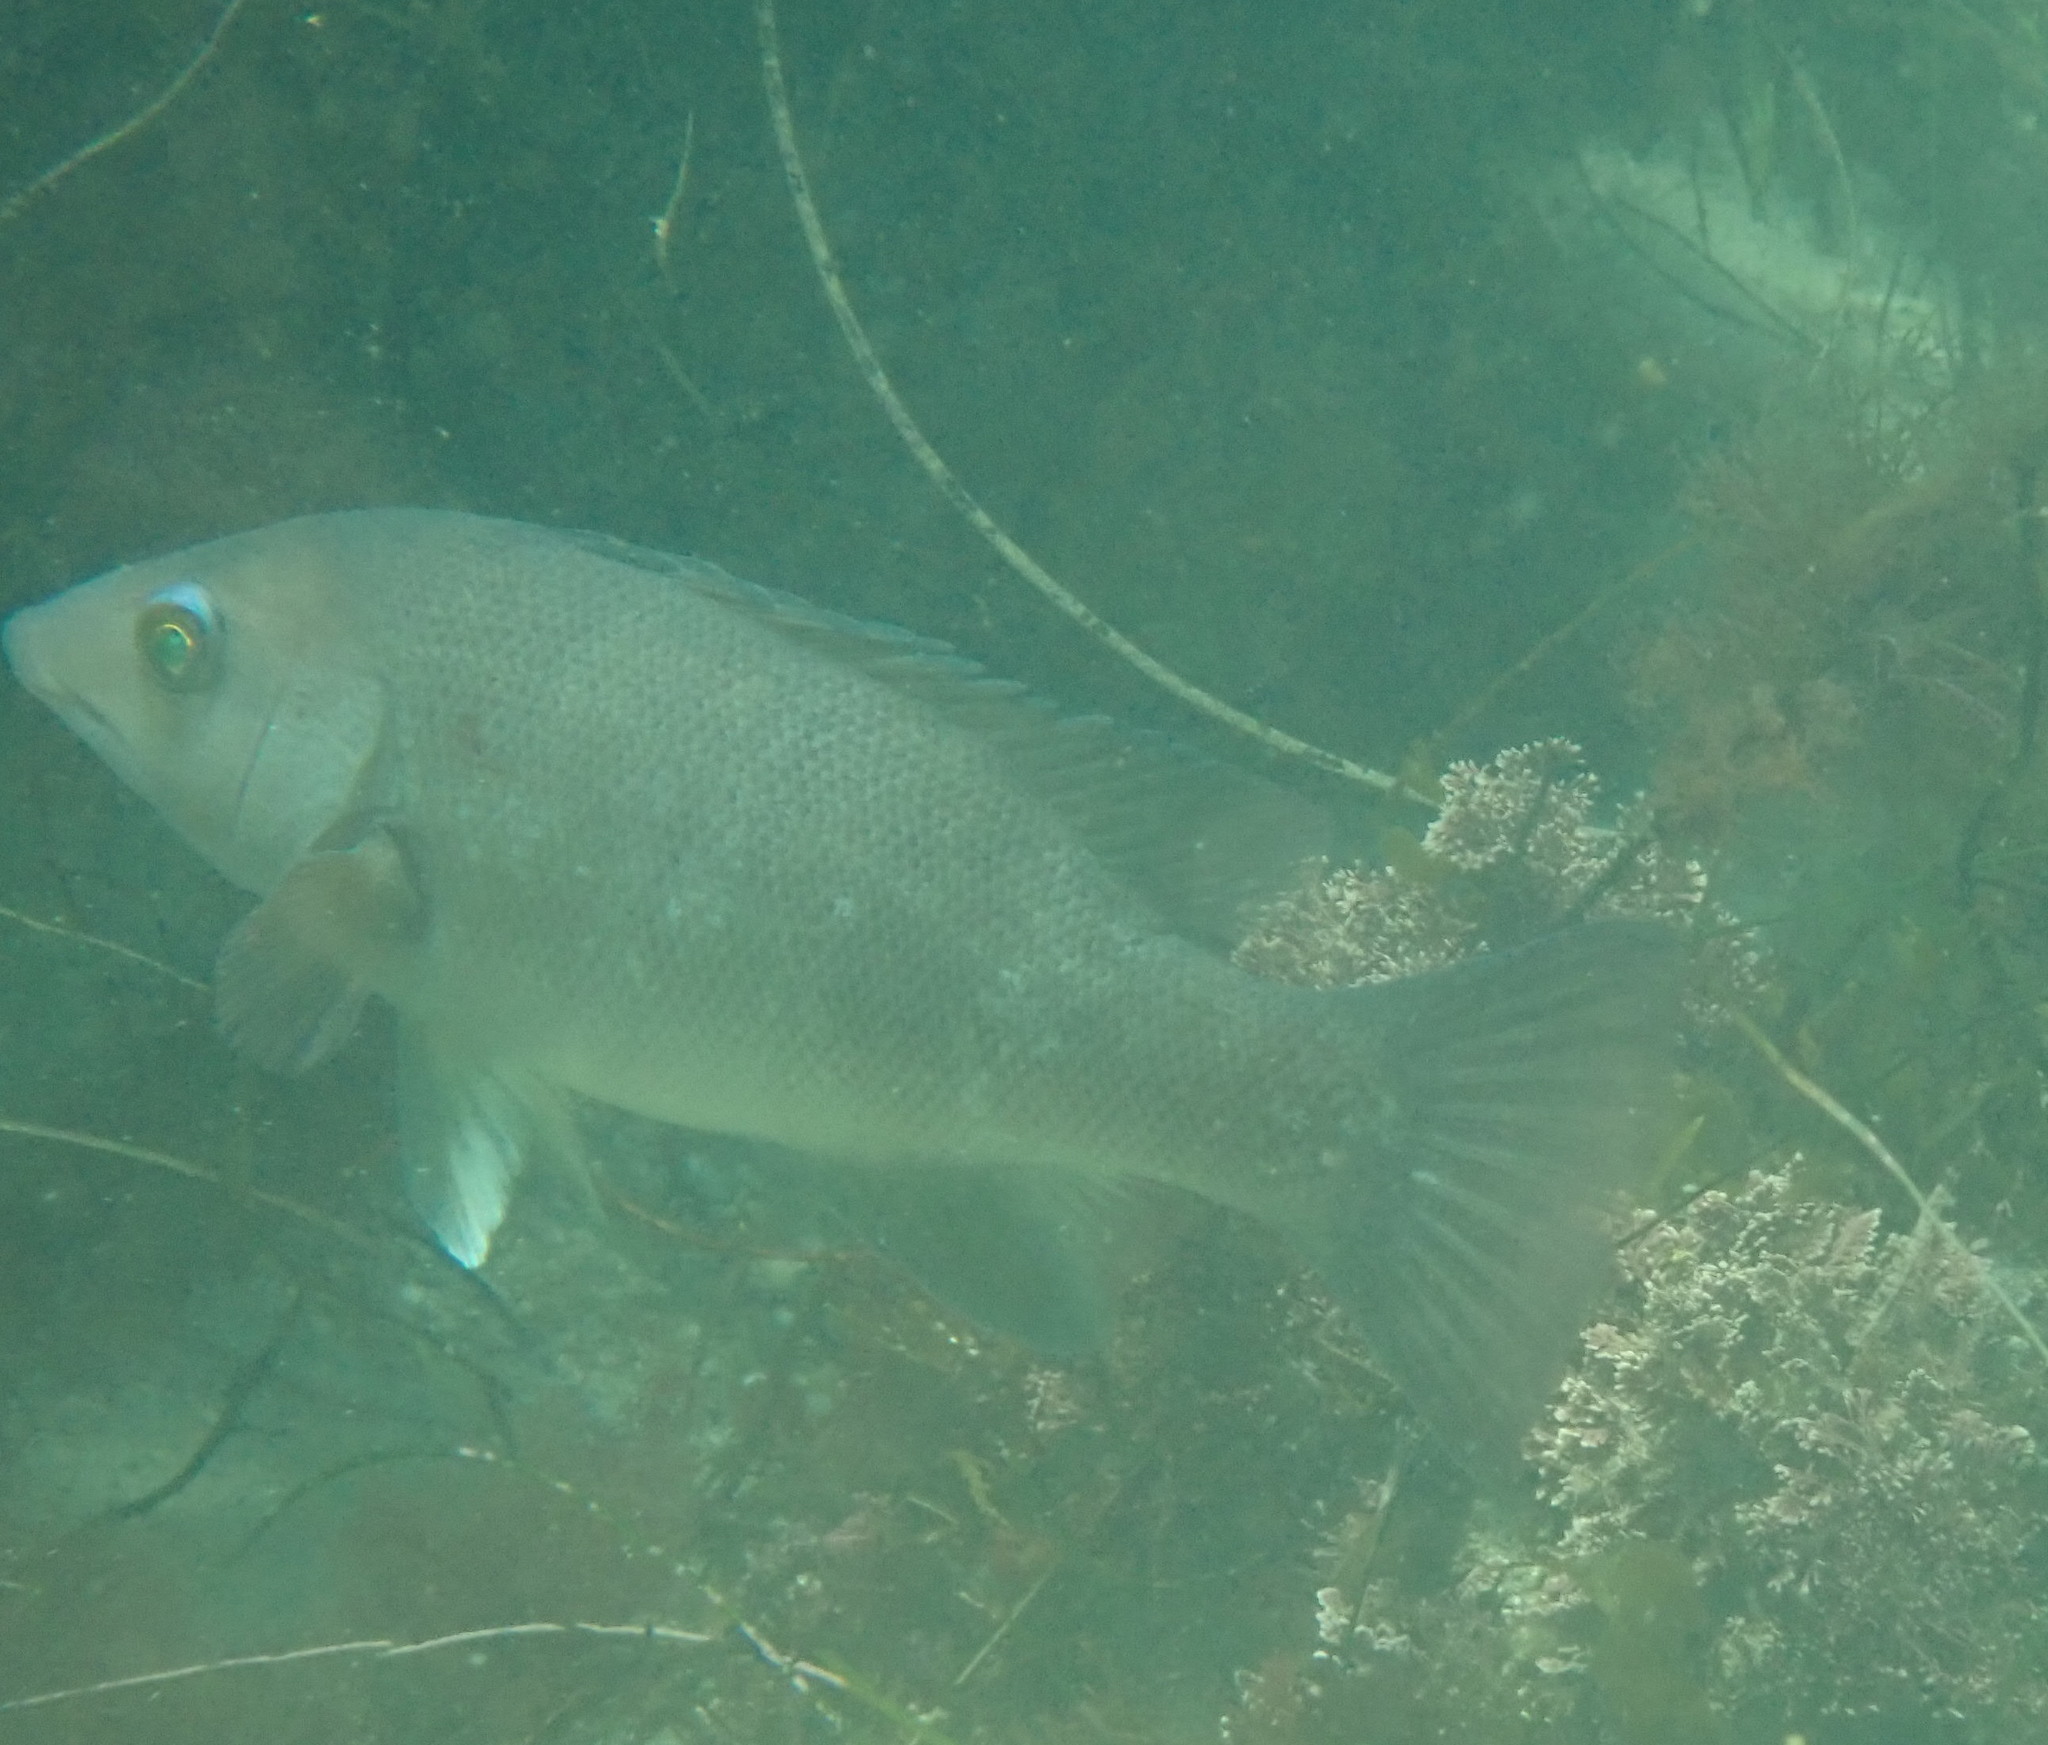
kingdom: Animalia
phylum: Chordata
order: Perciformes
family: Labridae
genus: Semicossyphus
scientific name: Semicossyphus pulcher
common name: California sheephead
